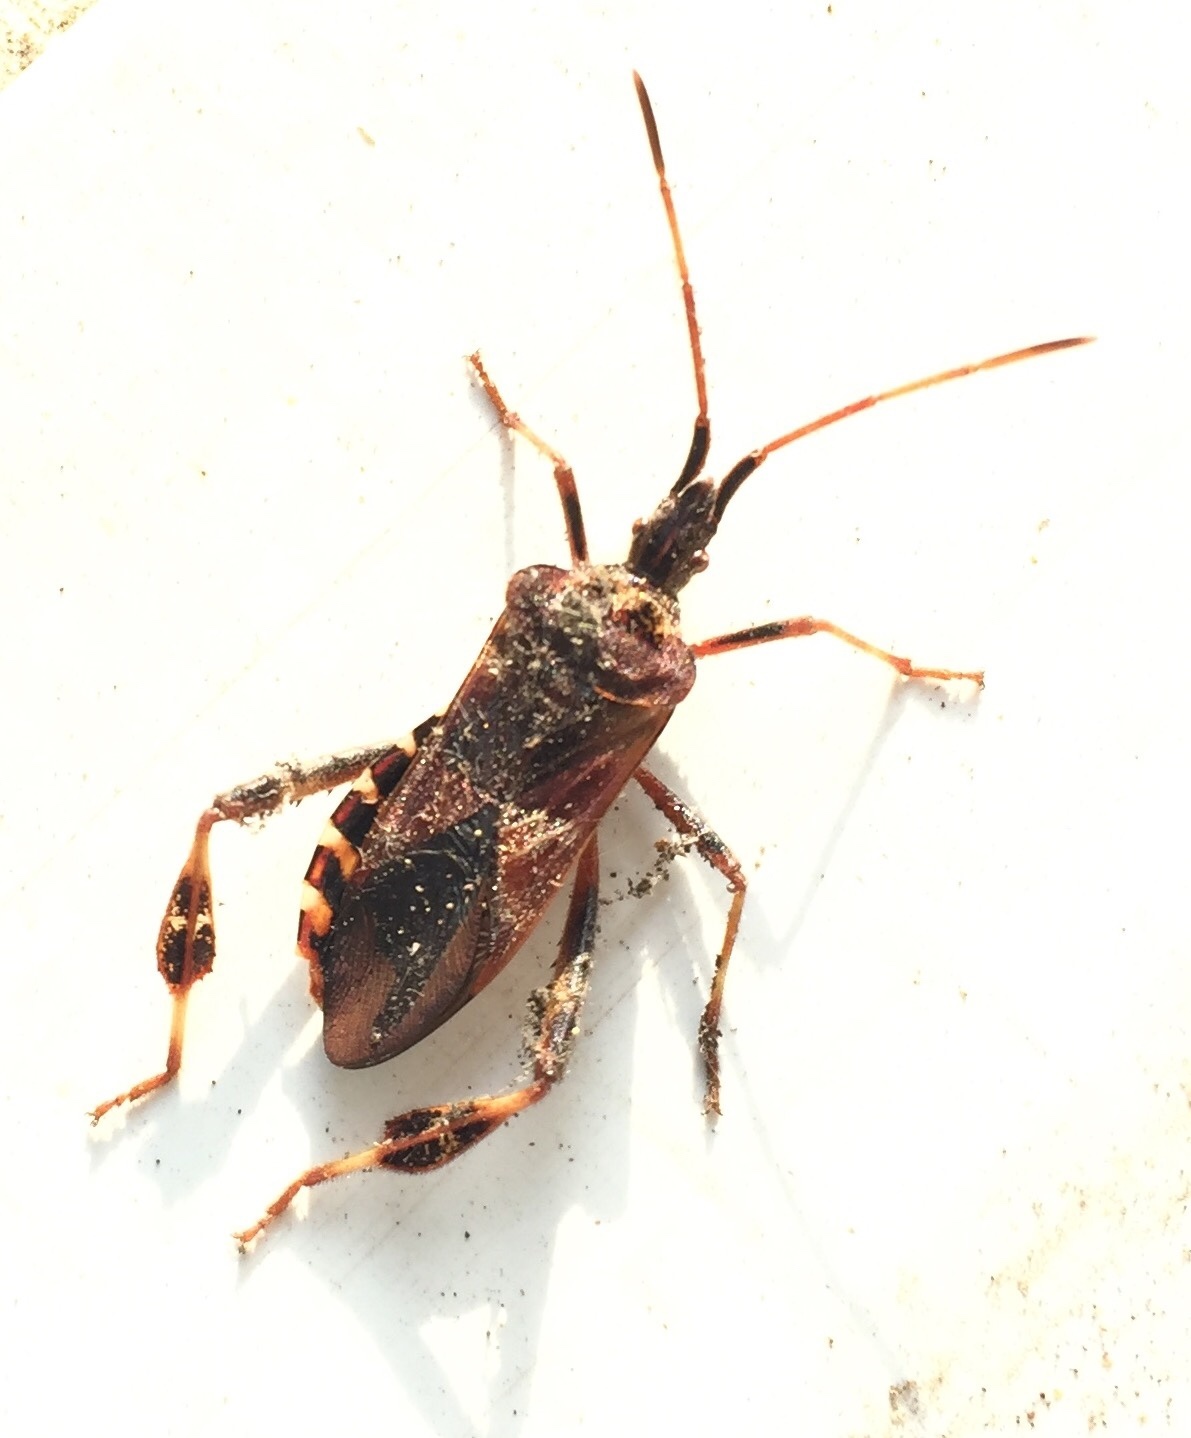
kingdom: Animalia
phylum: Arthropoda
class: Insecta
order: Hemiptera
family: Coreidae
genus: Leptoglossus
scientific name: Leptoglossus occidentalis
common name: Western conifer-seed bug
